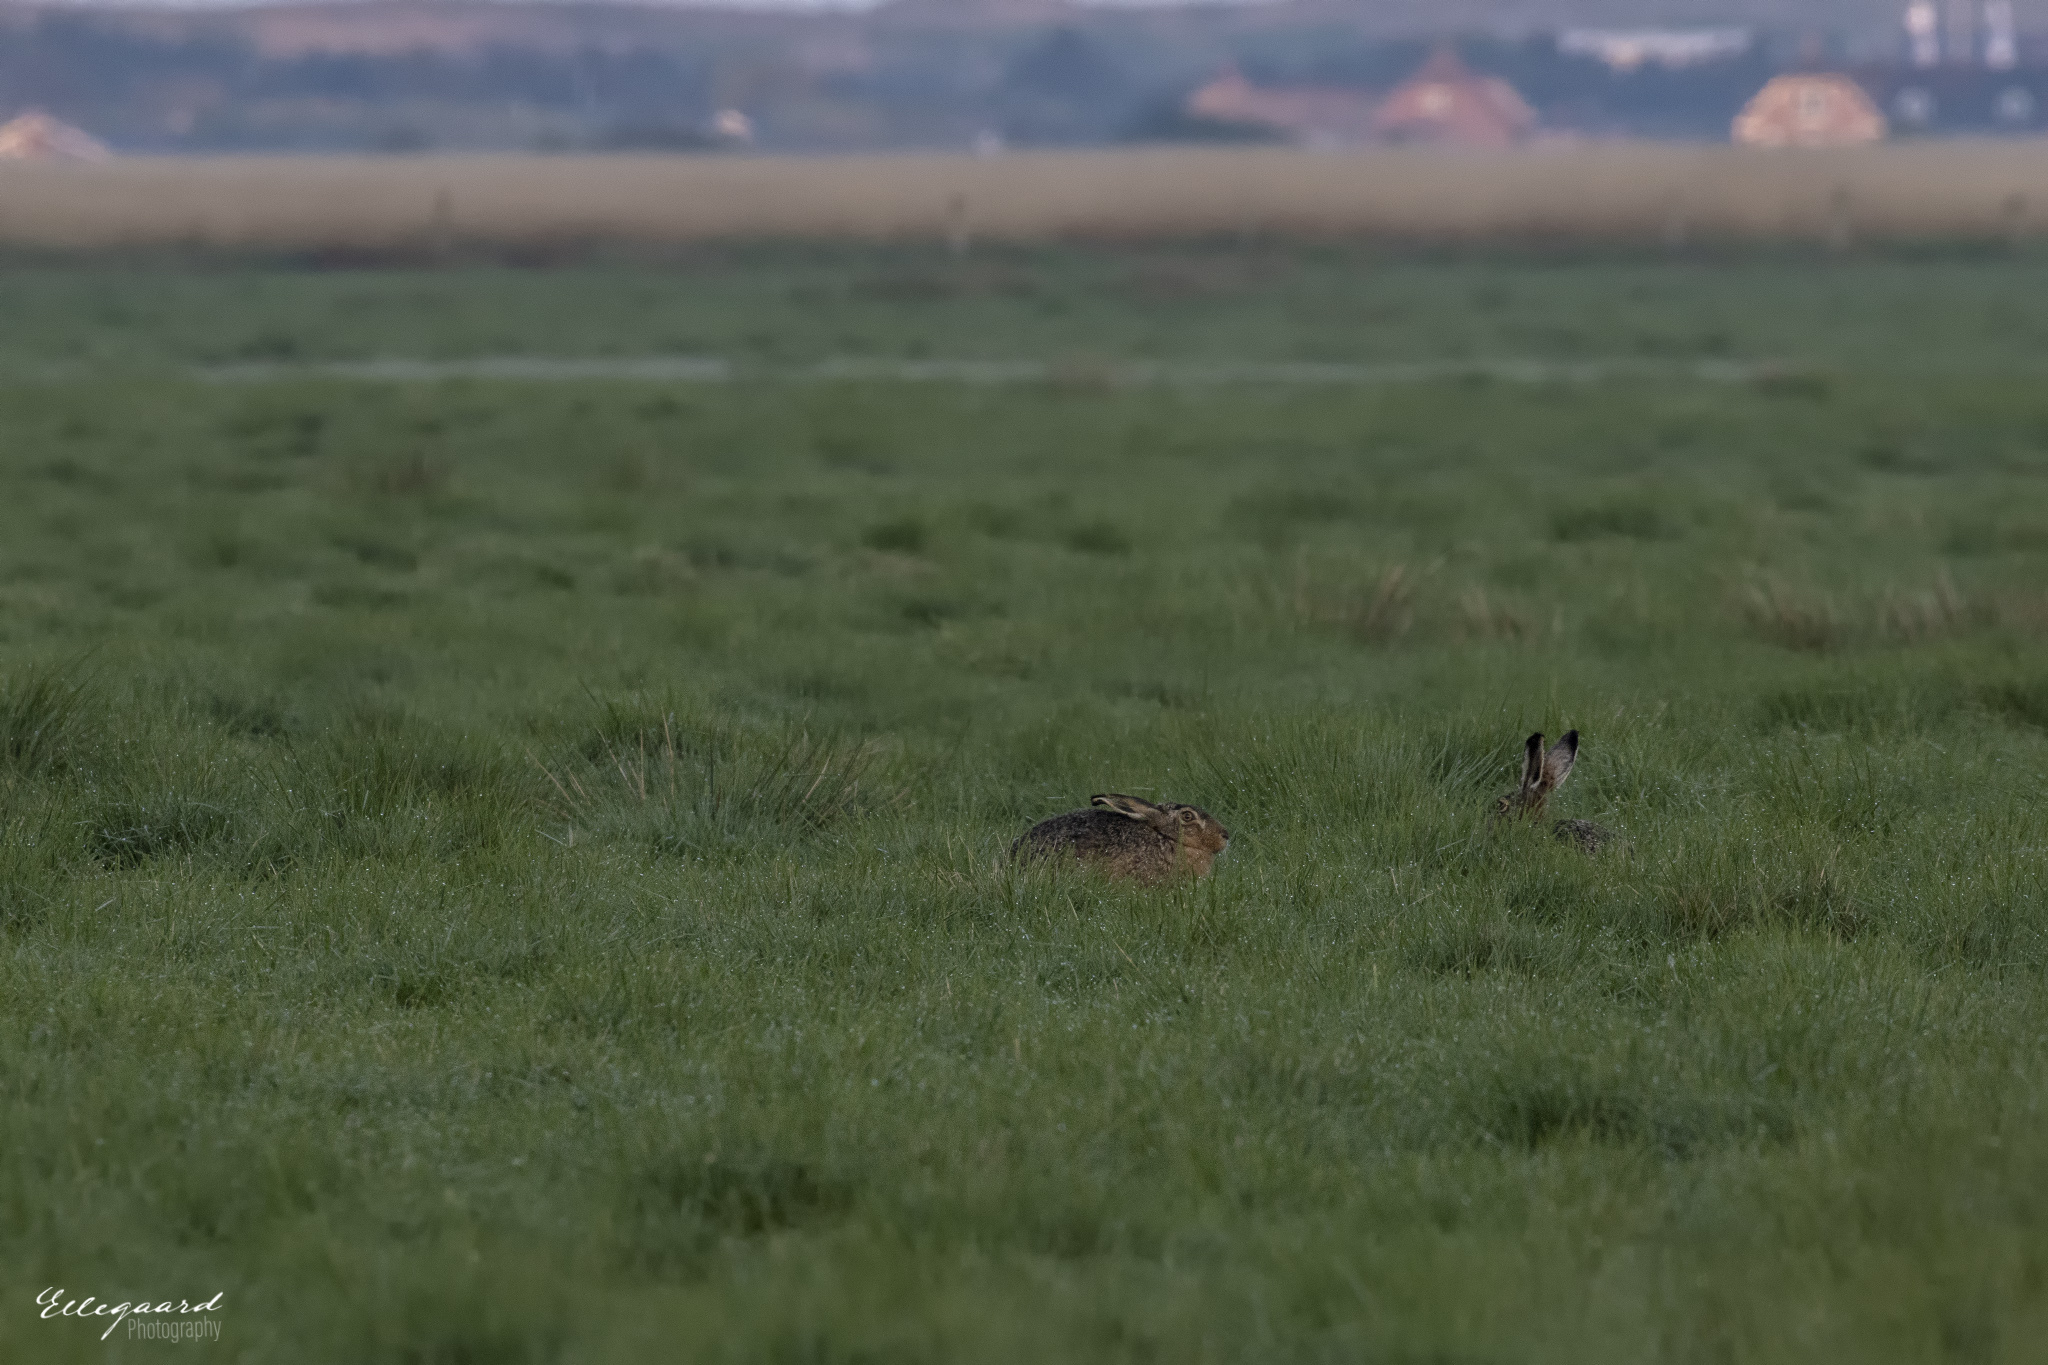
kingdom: Animalia
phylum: Chordata
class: Mammalia
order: Lagomorpha
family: Leporidae
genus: Lepus
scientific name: Lepus europaeus
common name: European hare
